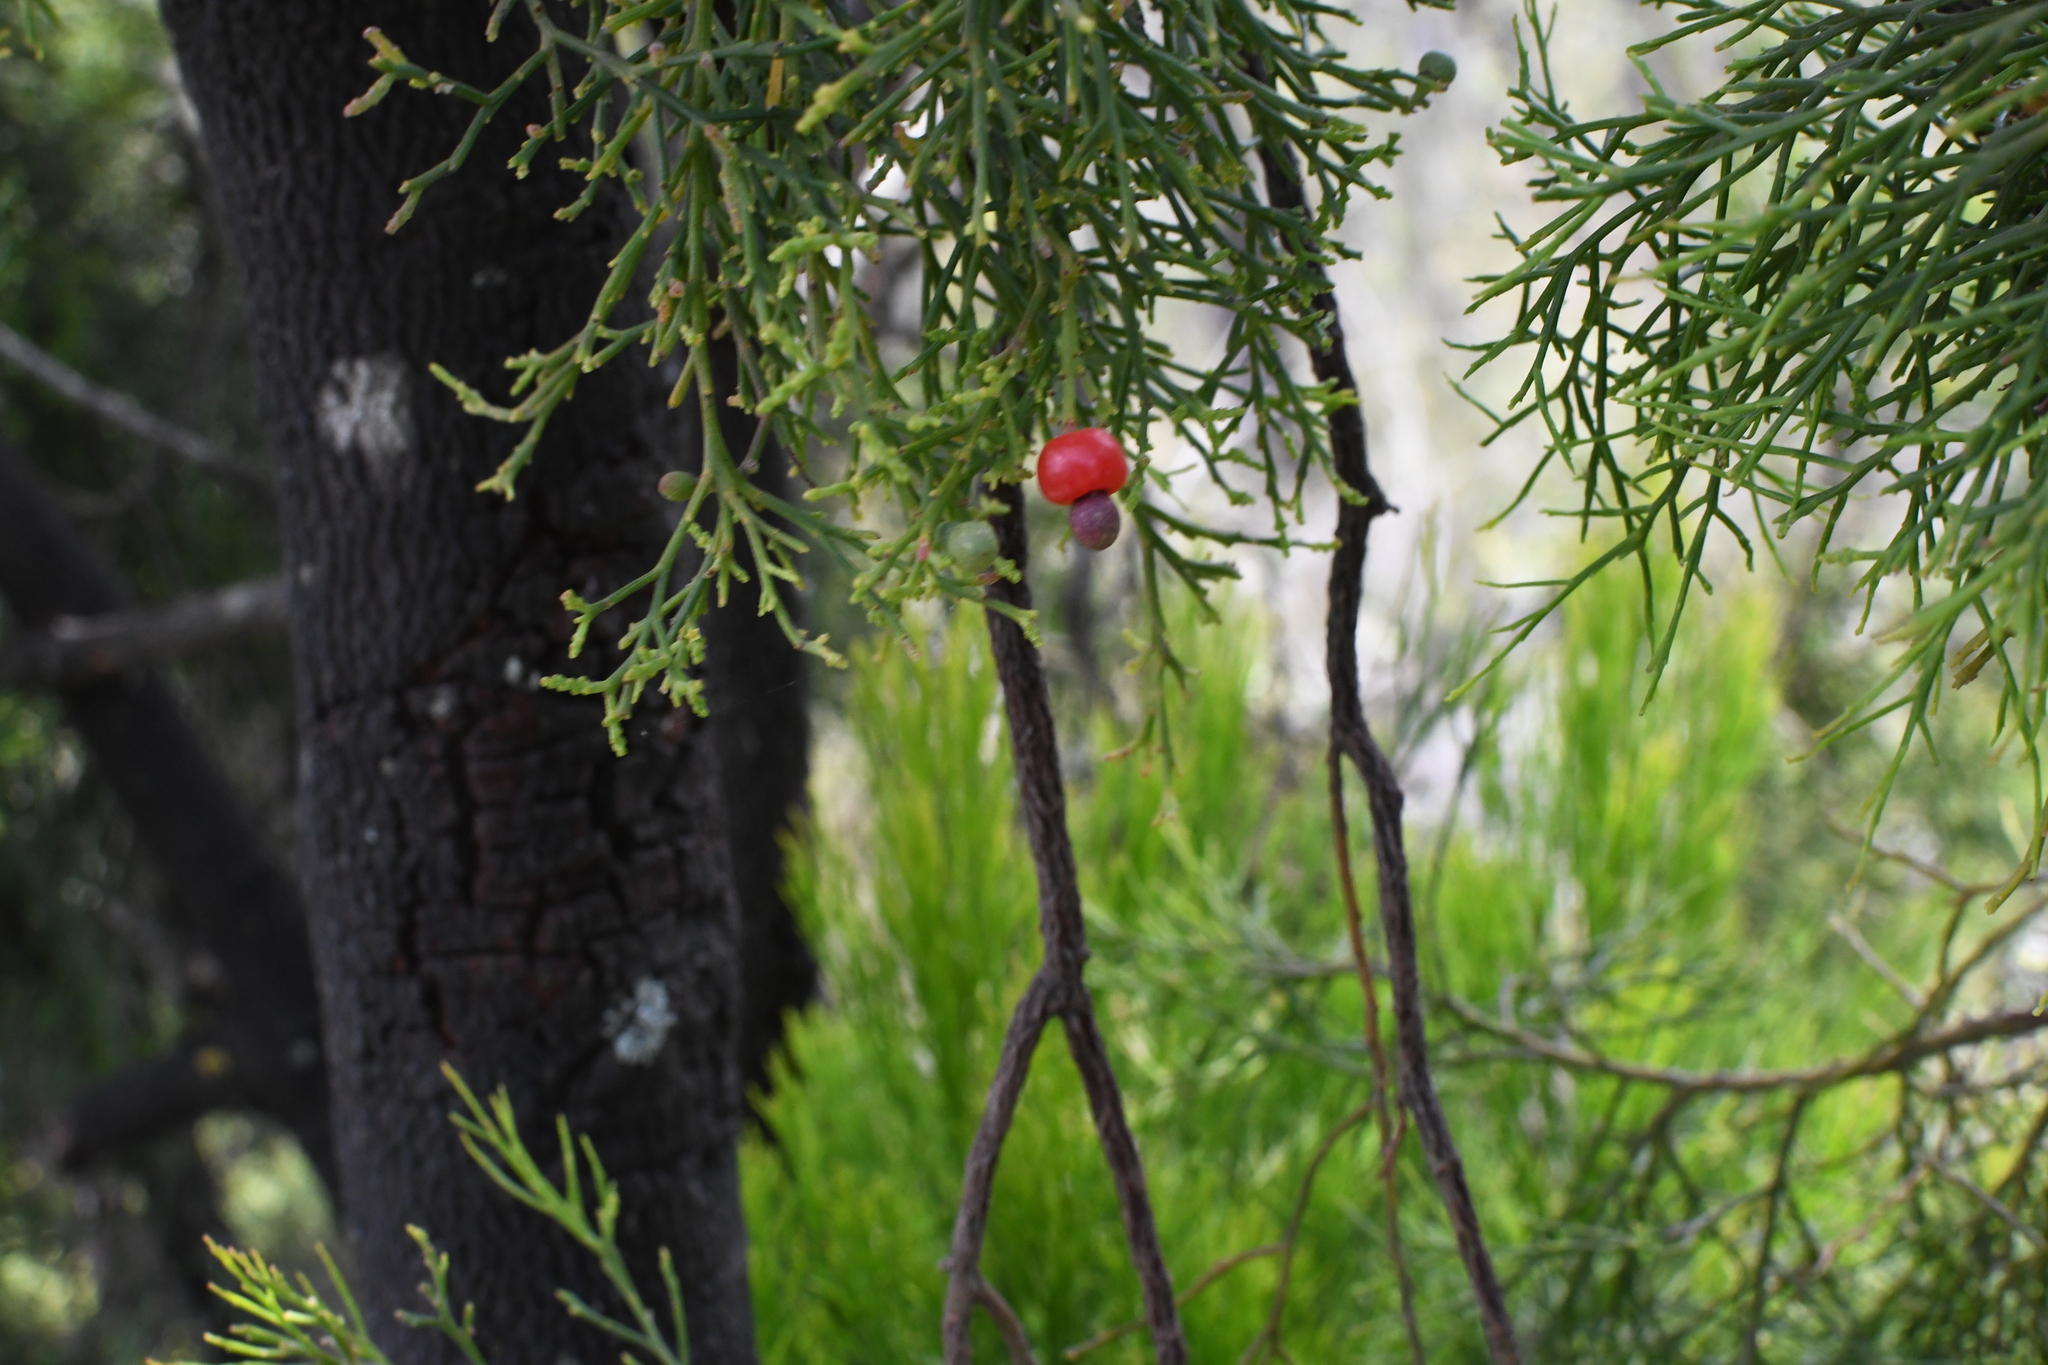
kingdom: Plantae
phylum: Tracheophyta
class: Magnoliopsida
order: Santalales
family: Santalaceae
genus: Exocarpos
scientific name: Exocarpos cupressiformis
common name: Cherry ballart
